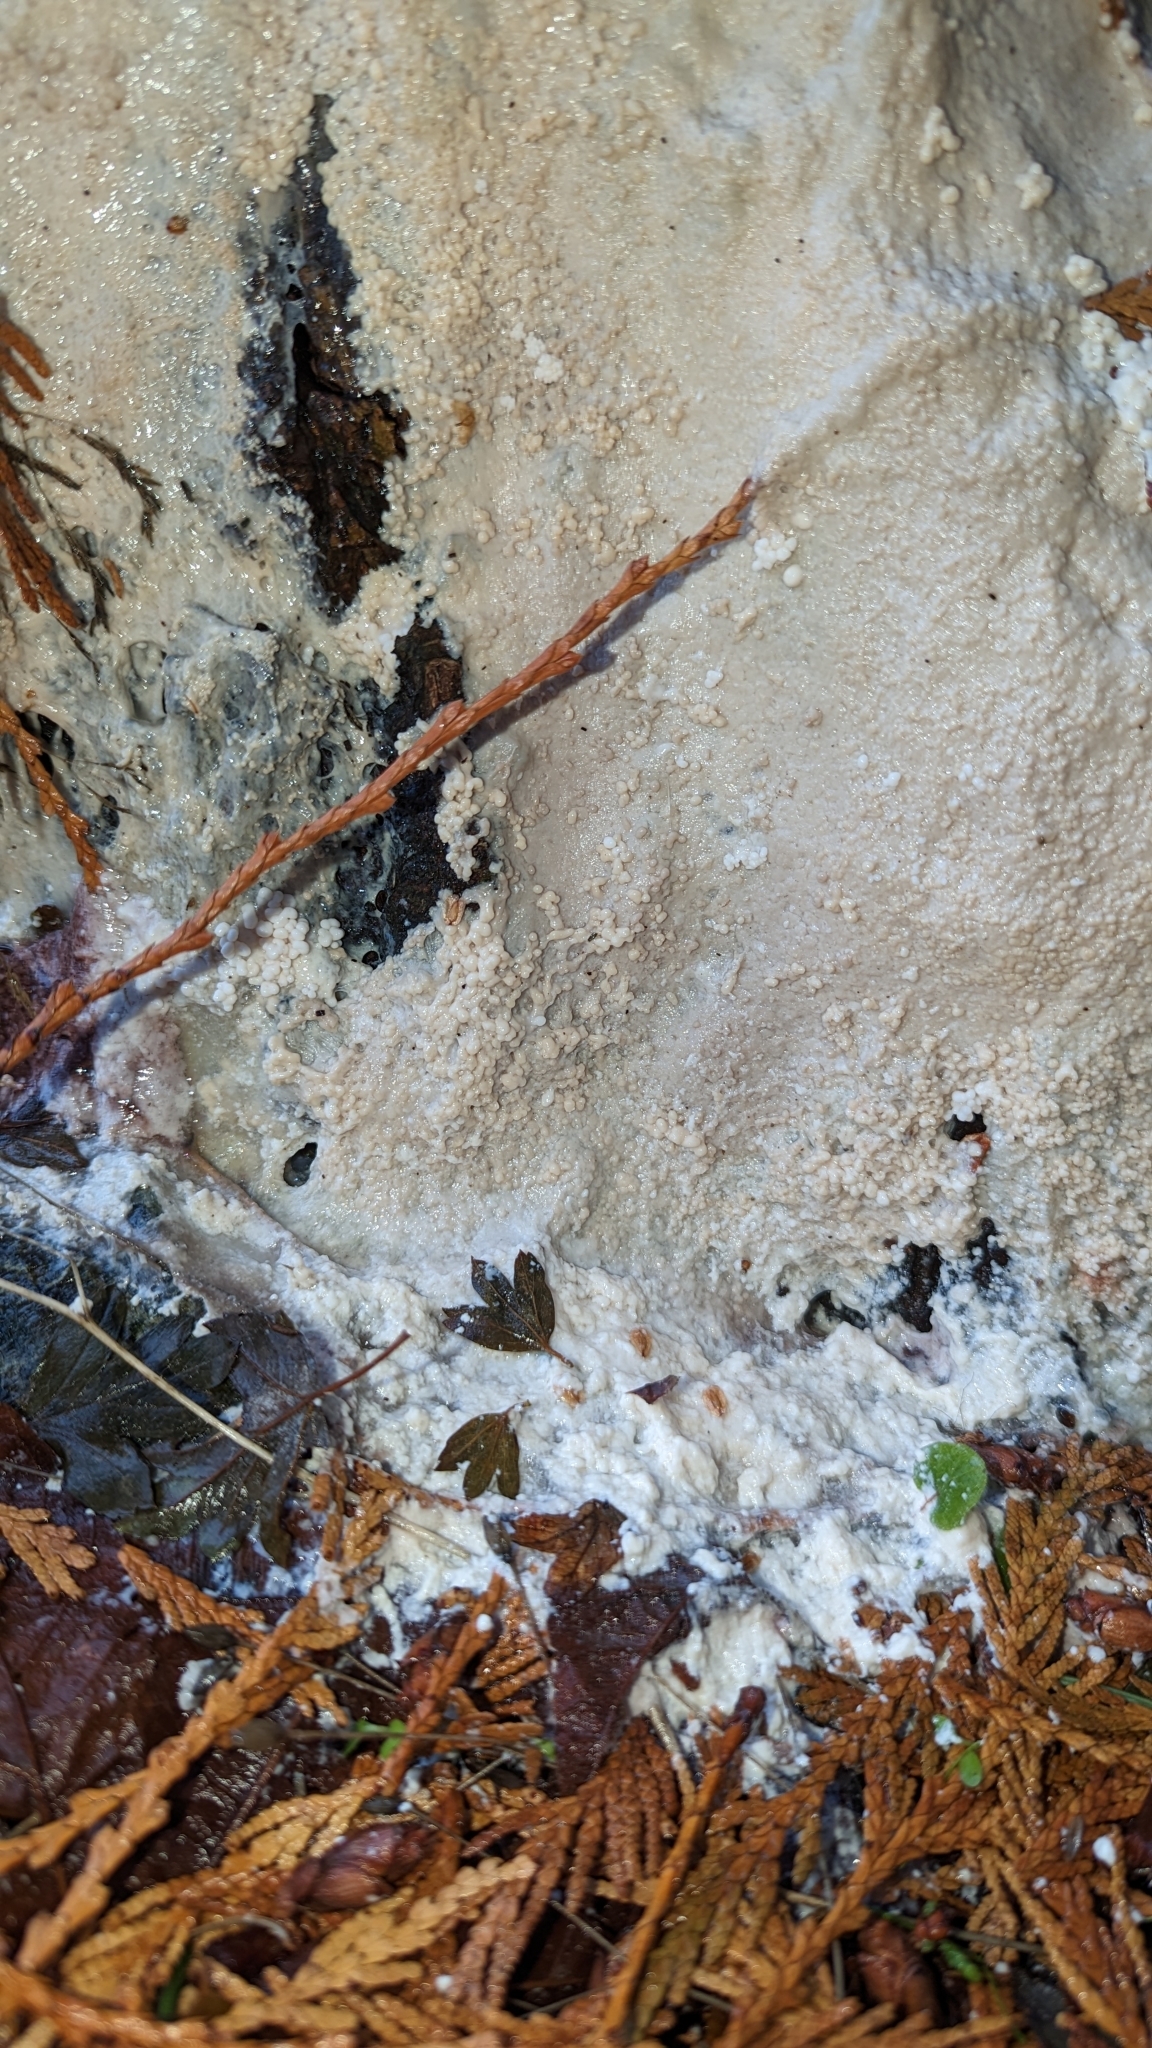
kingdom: Protozoa
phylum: Mycetozoa
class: Myxomycetes
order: Stemonitidales
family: Stemonitidaceae
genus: Brefeldia
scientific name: Brefeldia maxima
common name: Tapioca slime mold
